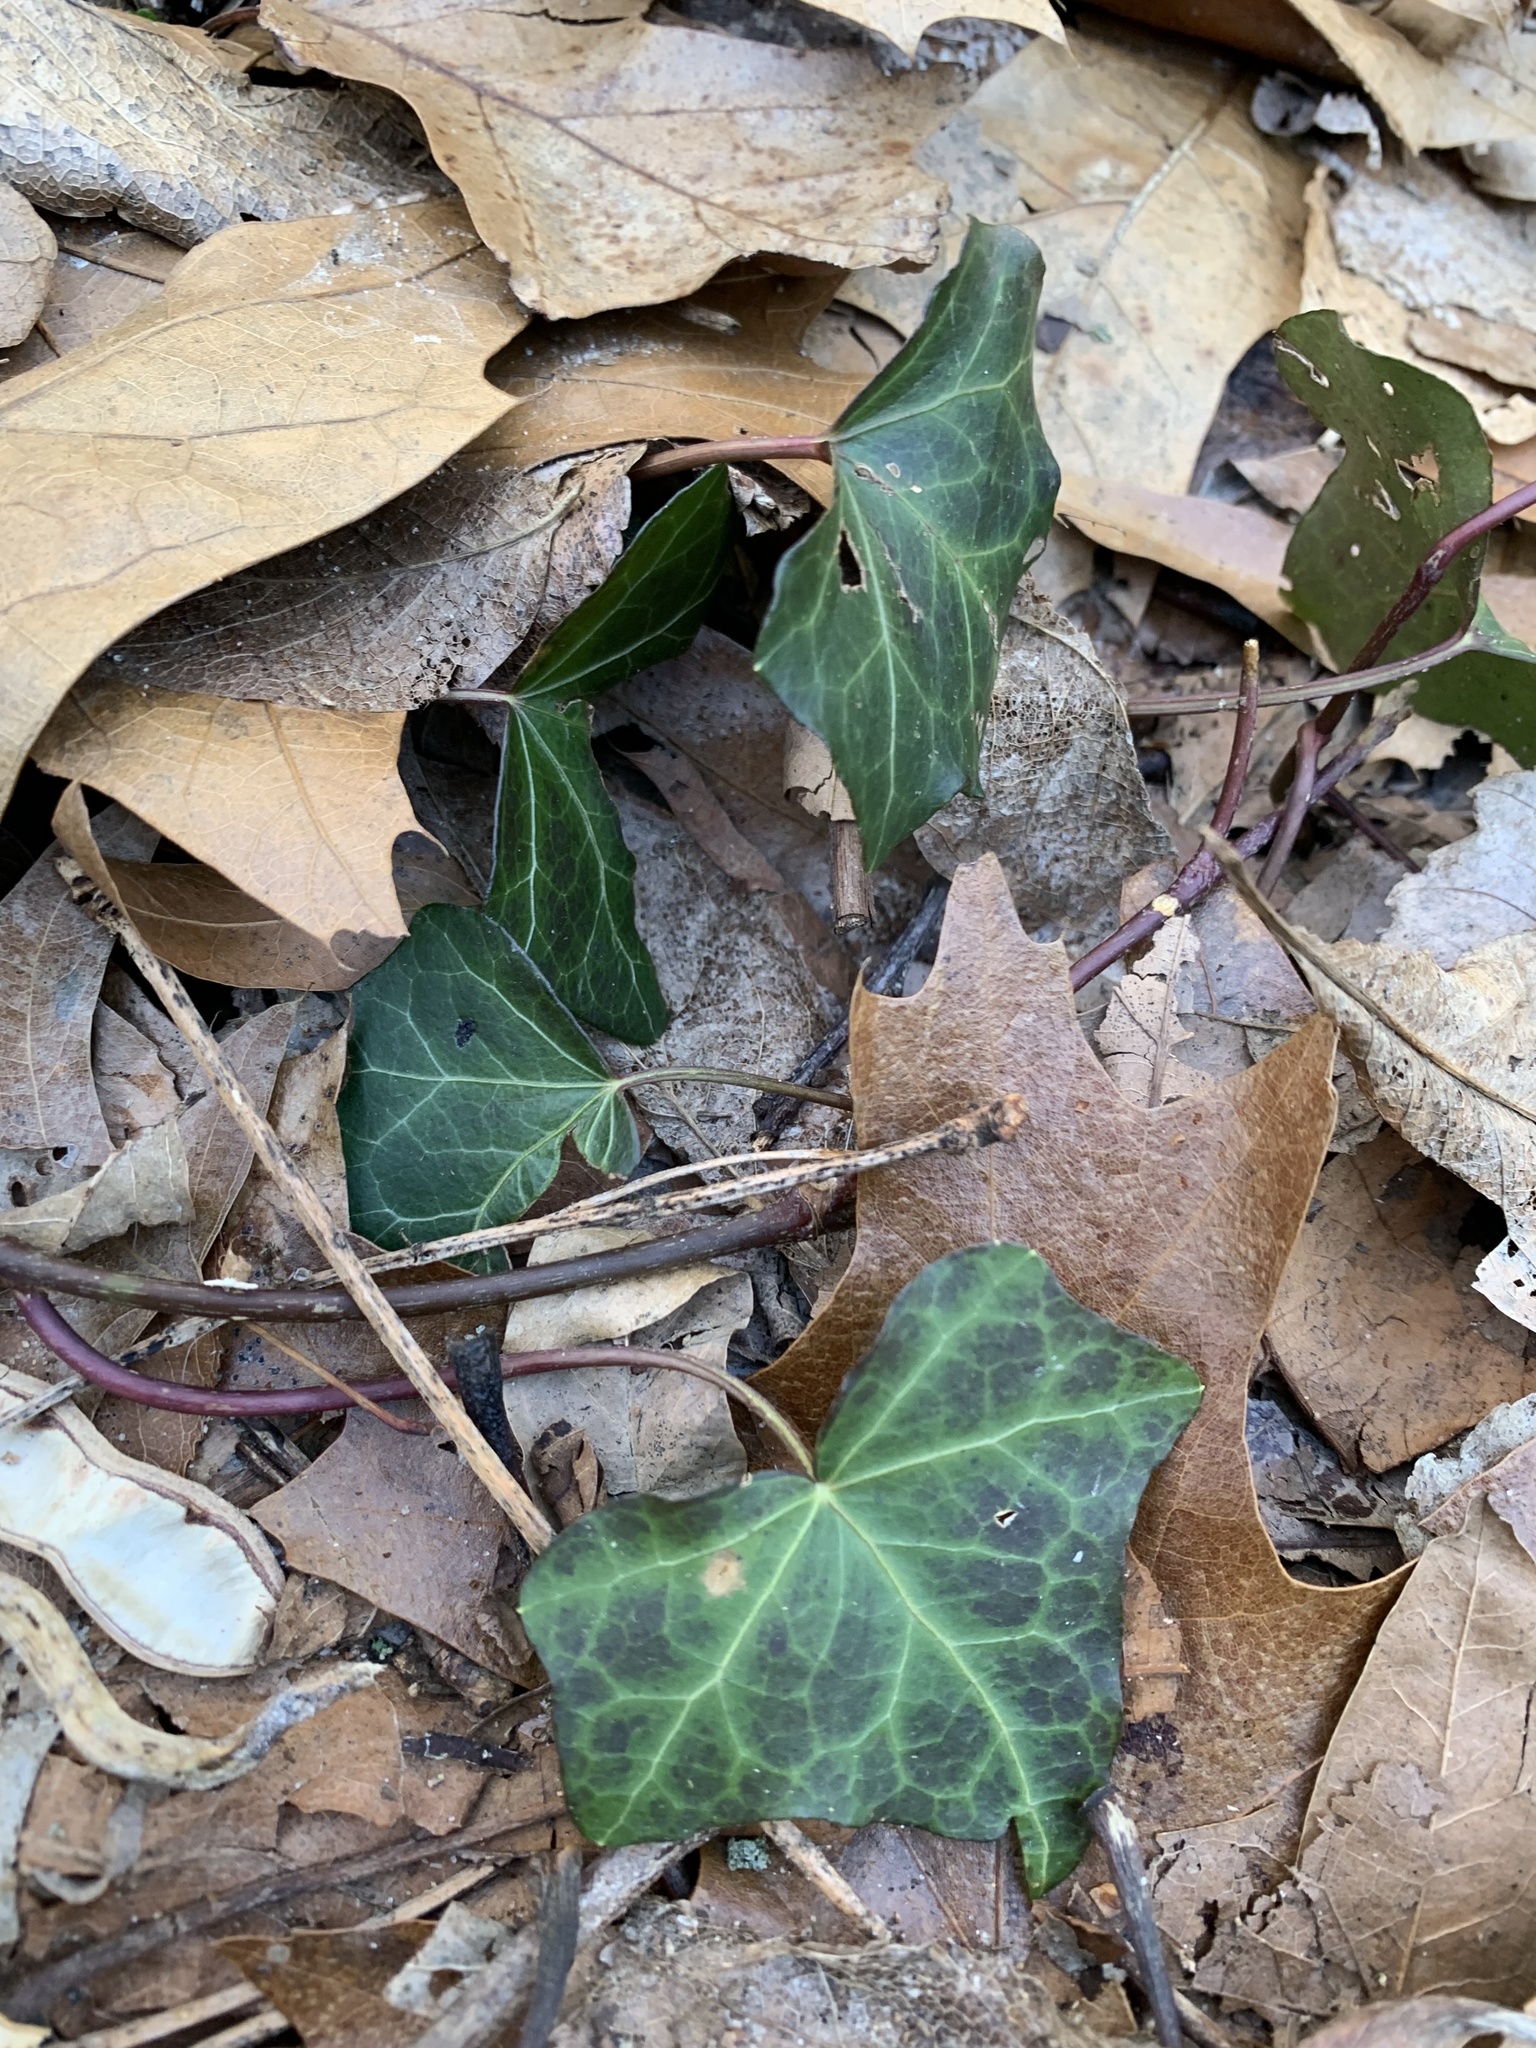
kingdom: Plantae
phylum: Tracheophyta
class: Magnoliopsida
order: Apiales
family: Araliaceae
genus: Hedera
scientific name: Hedera helix
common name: Ivy
